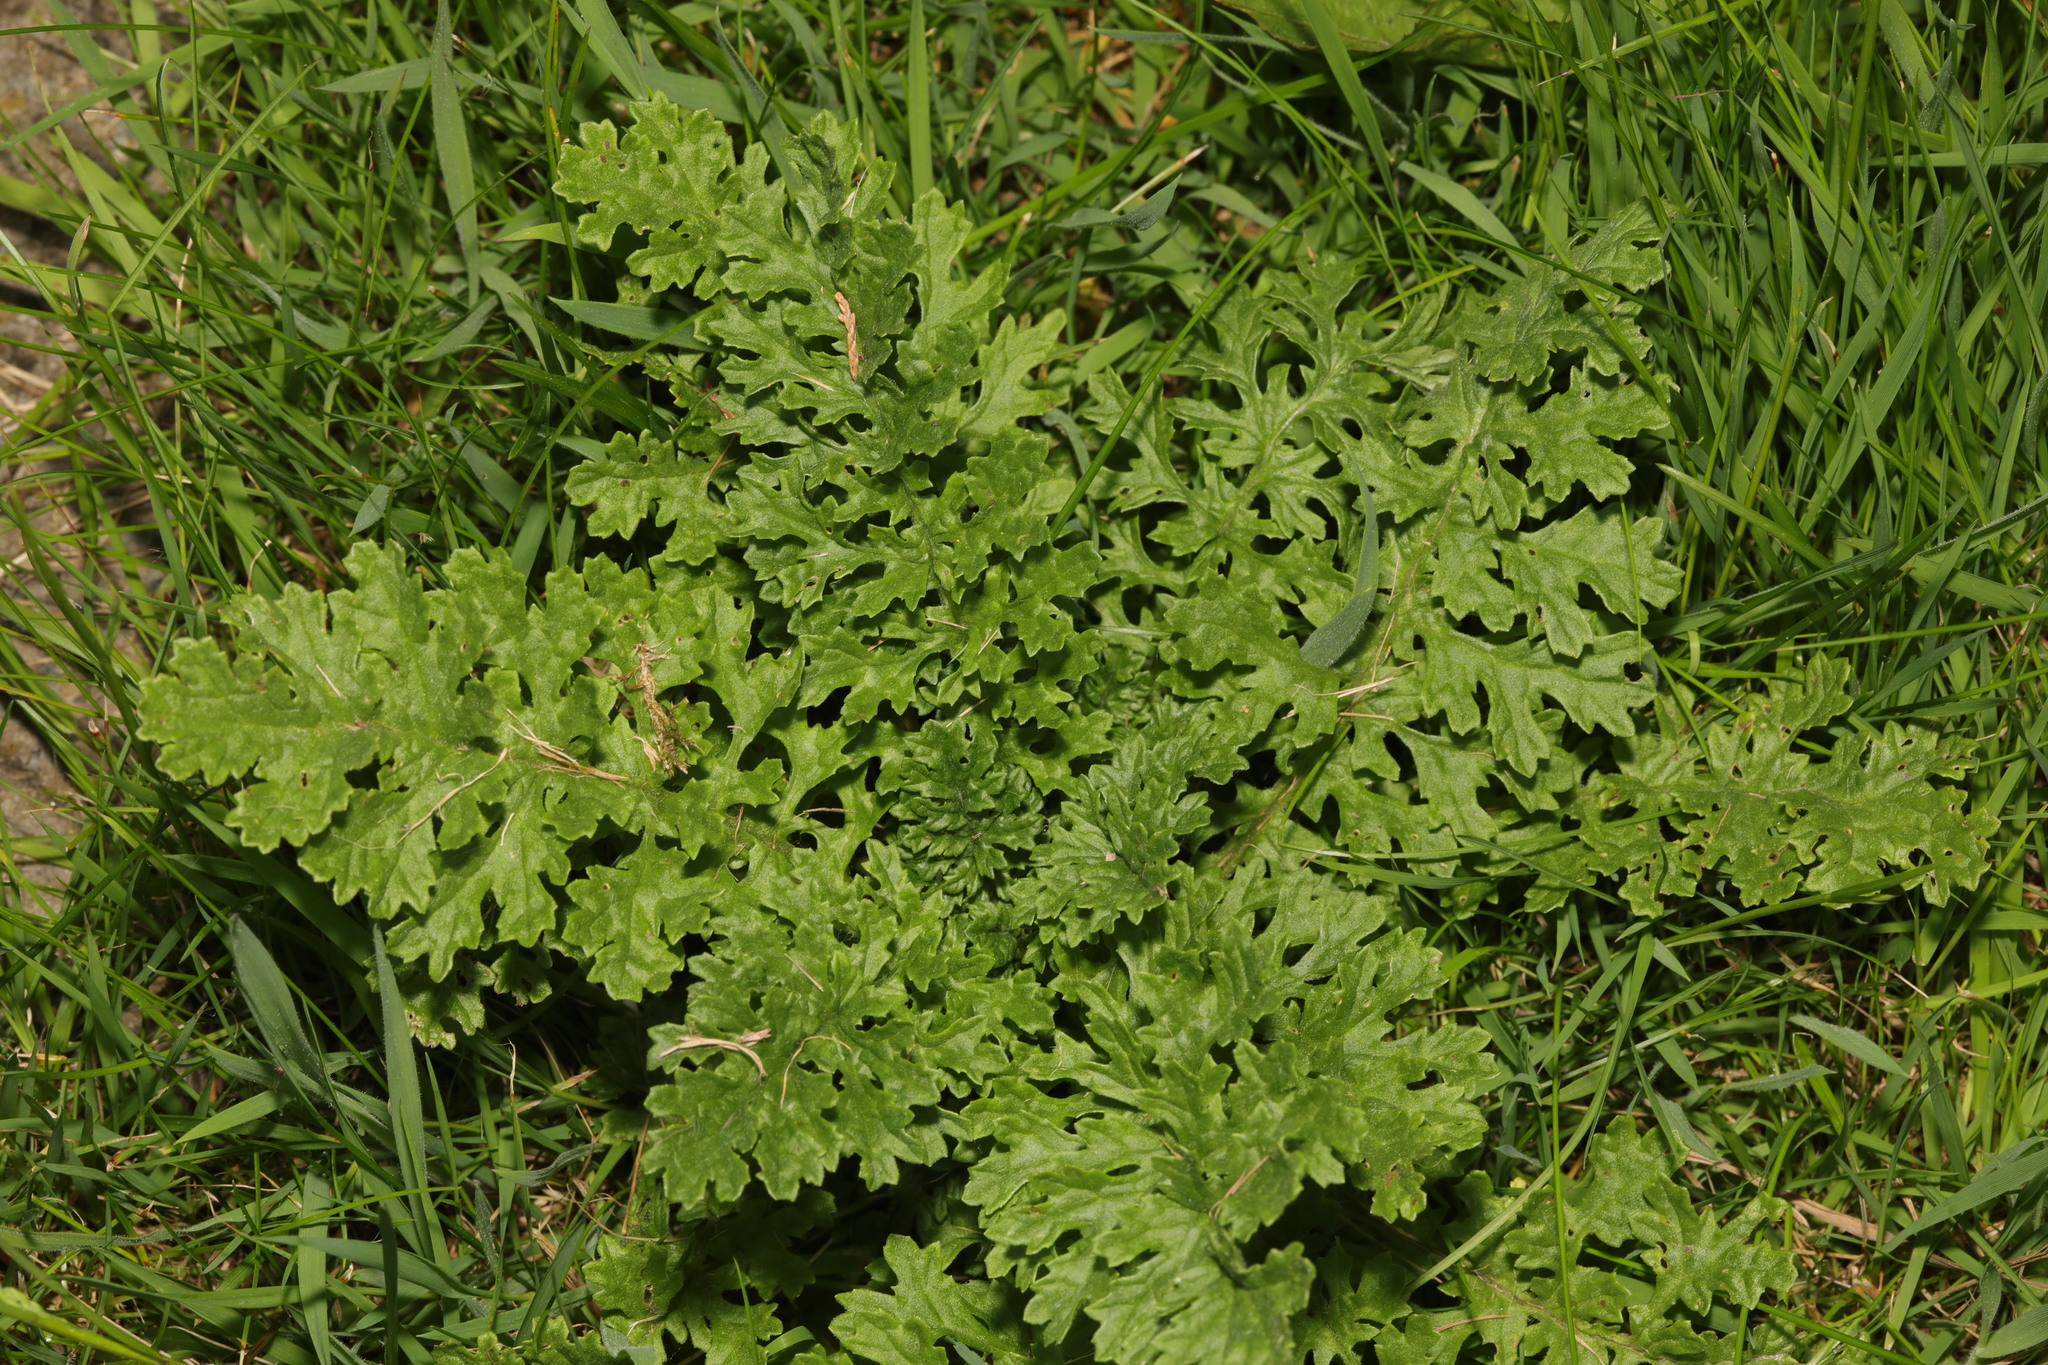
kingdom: Plantae
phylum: Tracheophyta
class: Magnoliopsida
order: Asterales
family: Asteraceae
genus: Jacobaea
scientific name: Jacobaea vulgaris
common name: Stinking willie
